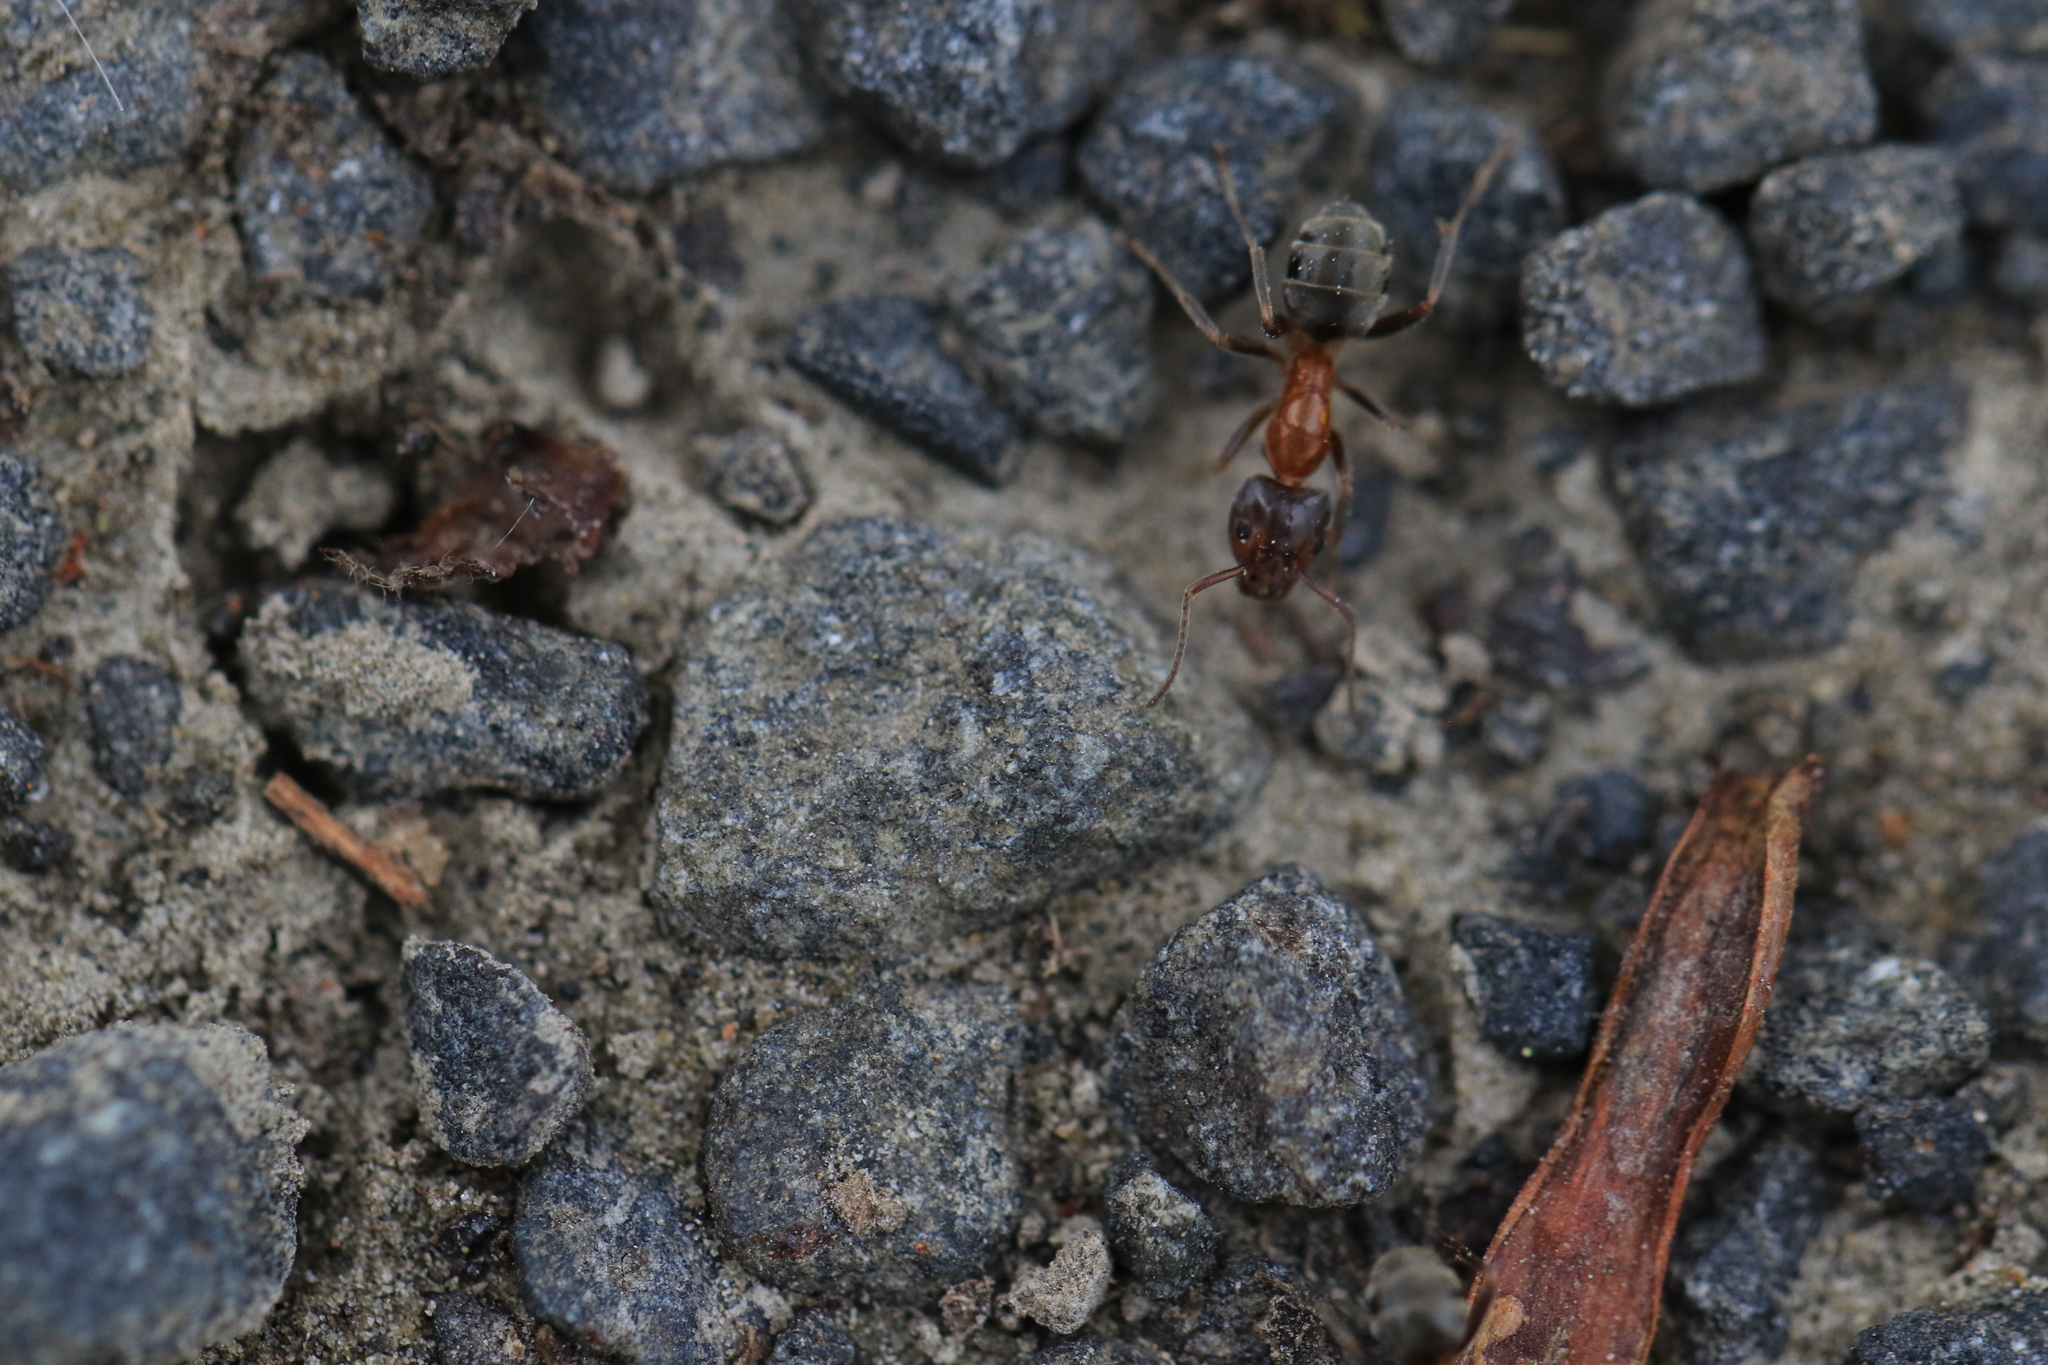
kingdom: Animalia
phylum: Arthropoda
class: Insecta
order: Hymenoptera
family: Formicidae
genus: Liometopum
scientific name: Liometopum occidentale
